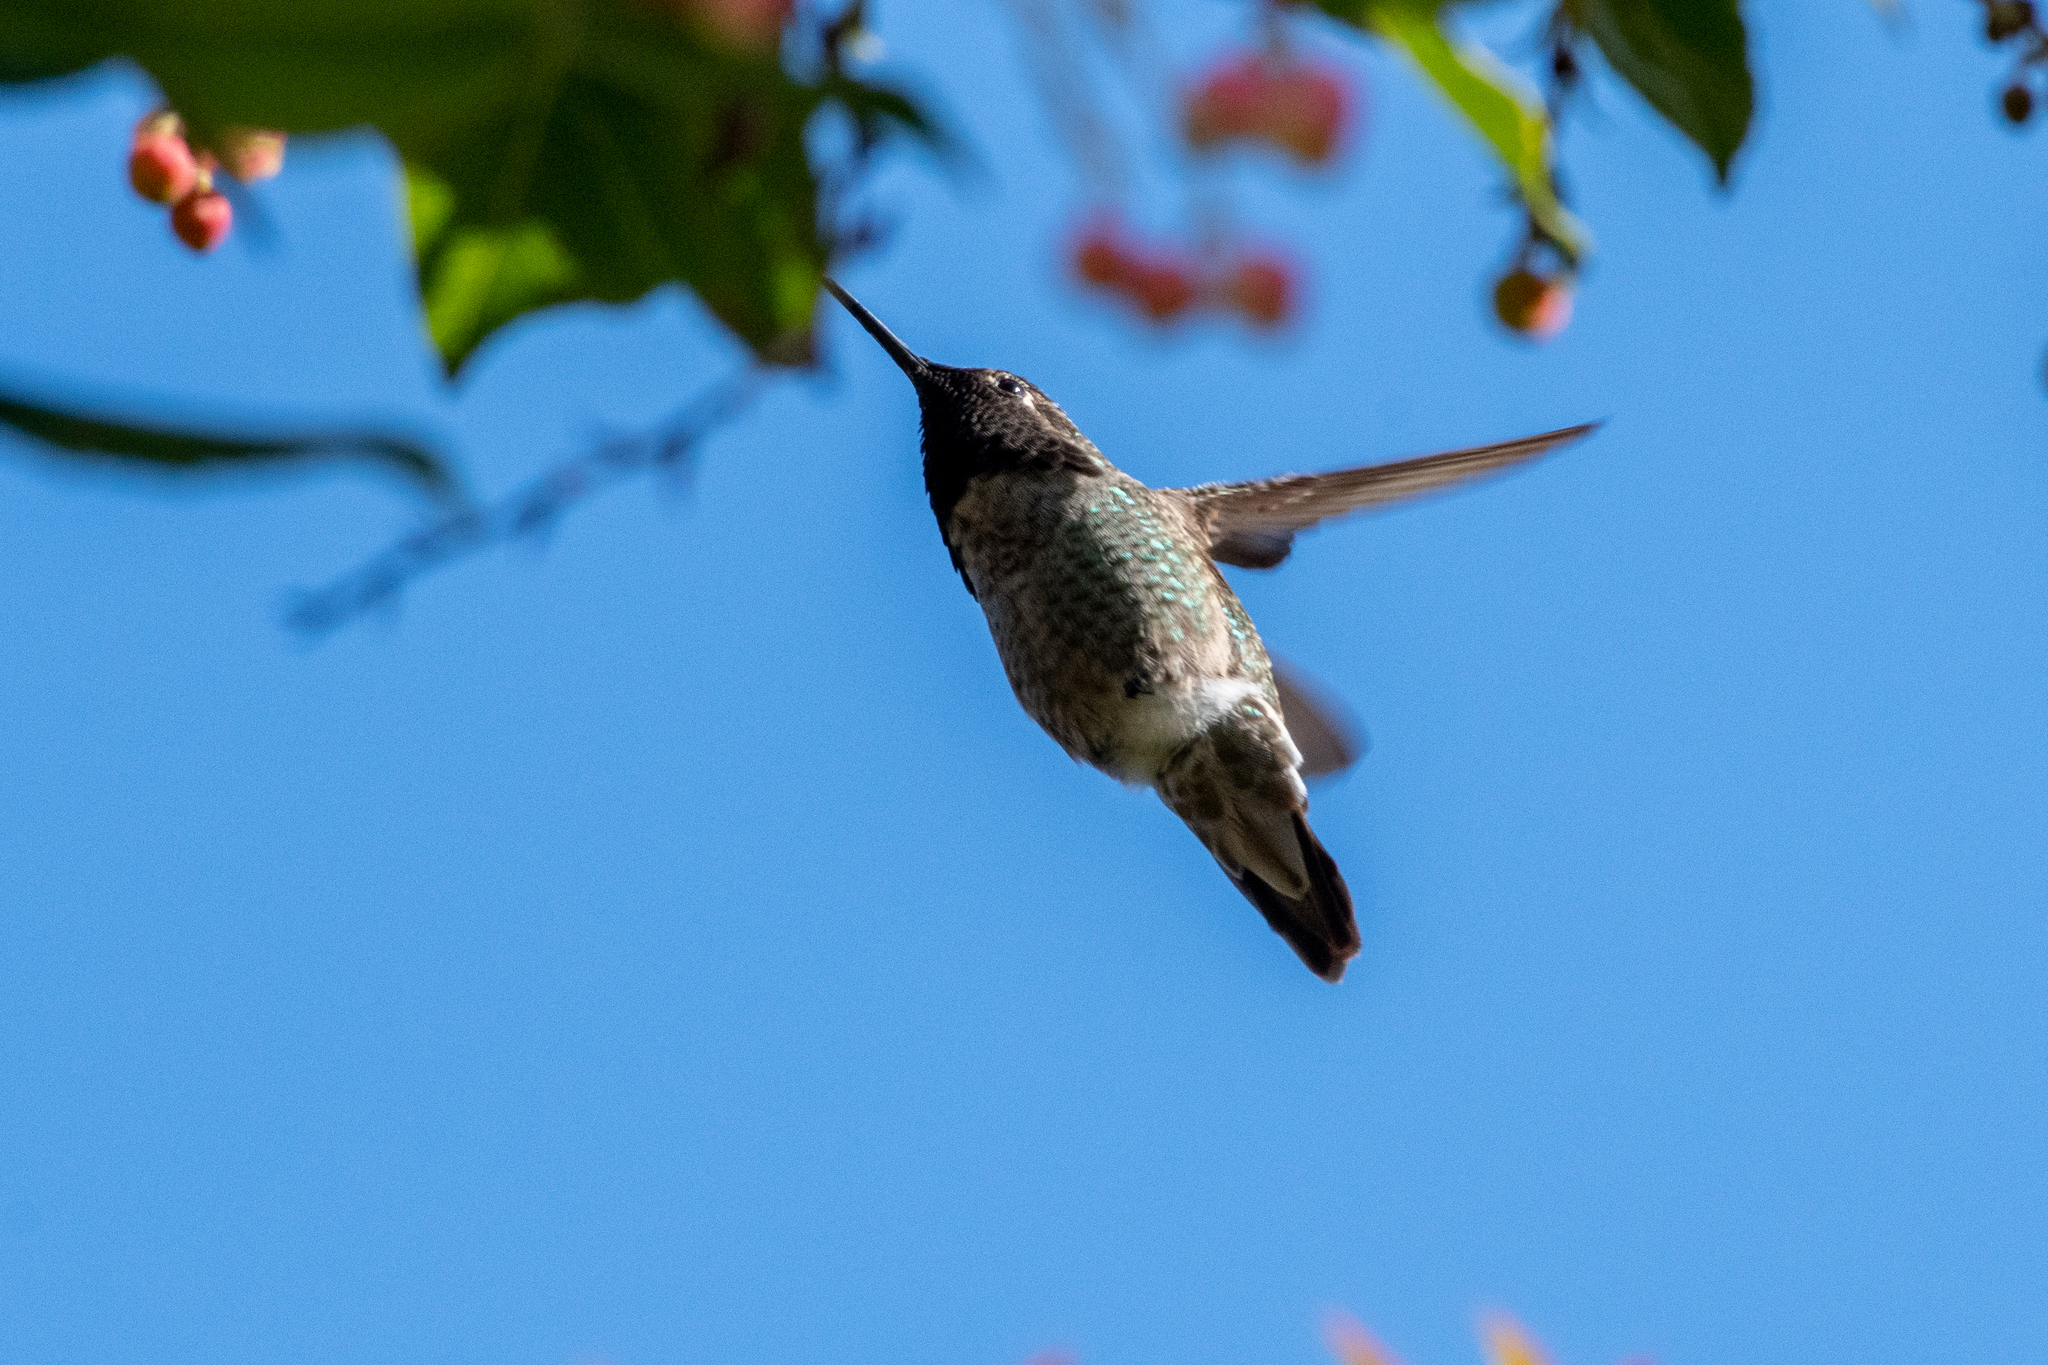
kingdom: Animalia
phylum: Chordata
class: Aves
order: Apodiformes
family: Trochilidae
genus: Calypte
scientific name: Calypte anna
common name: Anna's hummingbird
